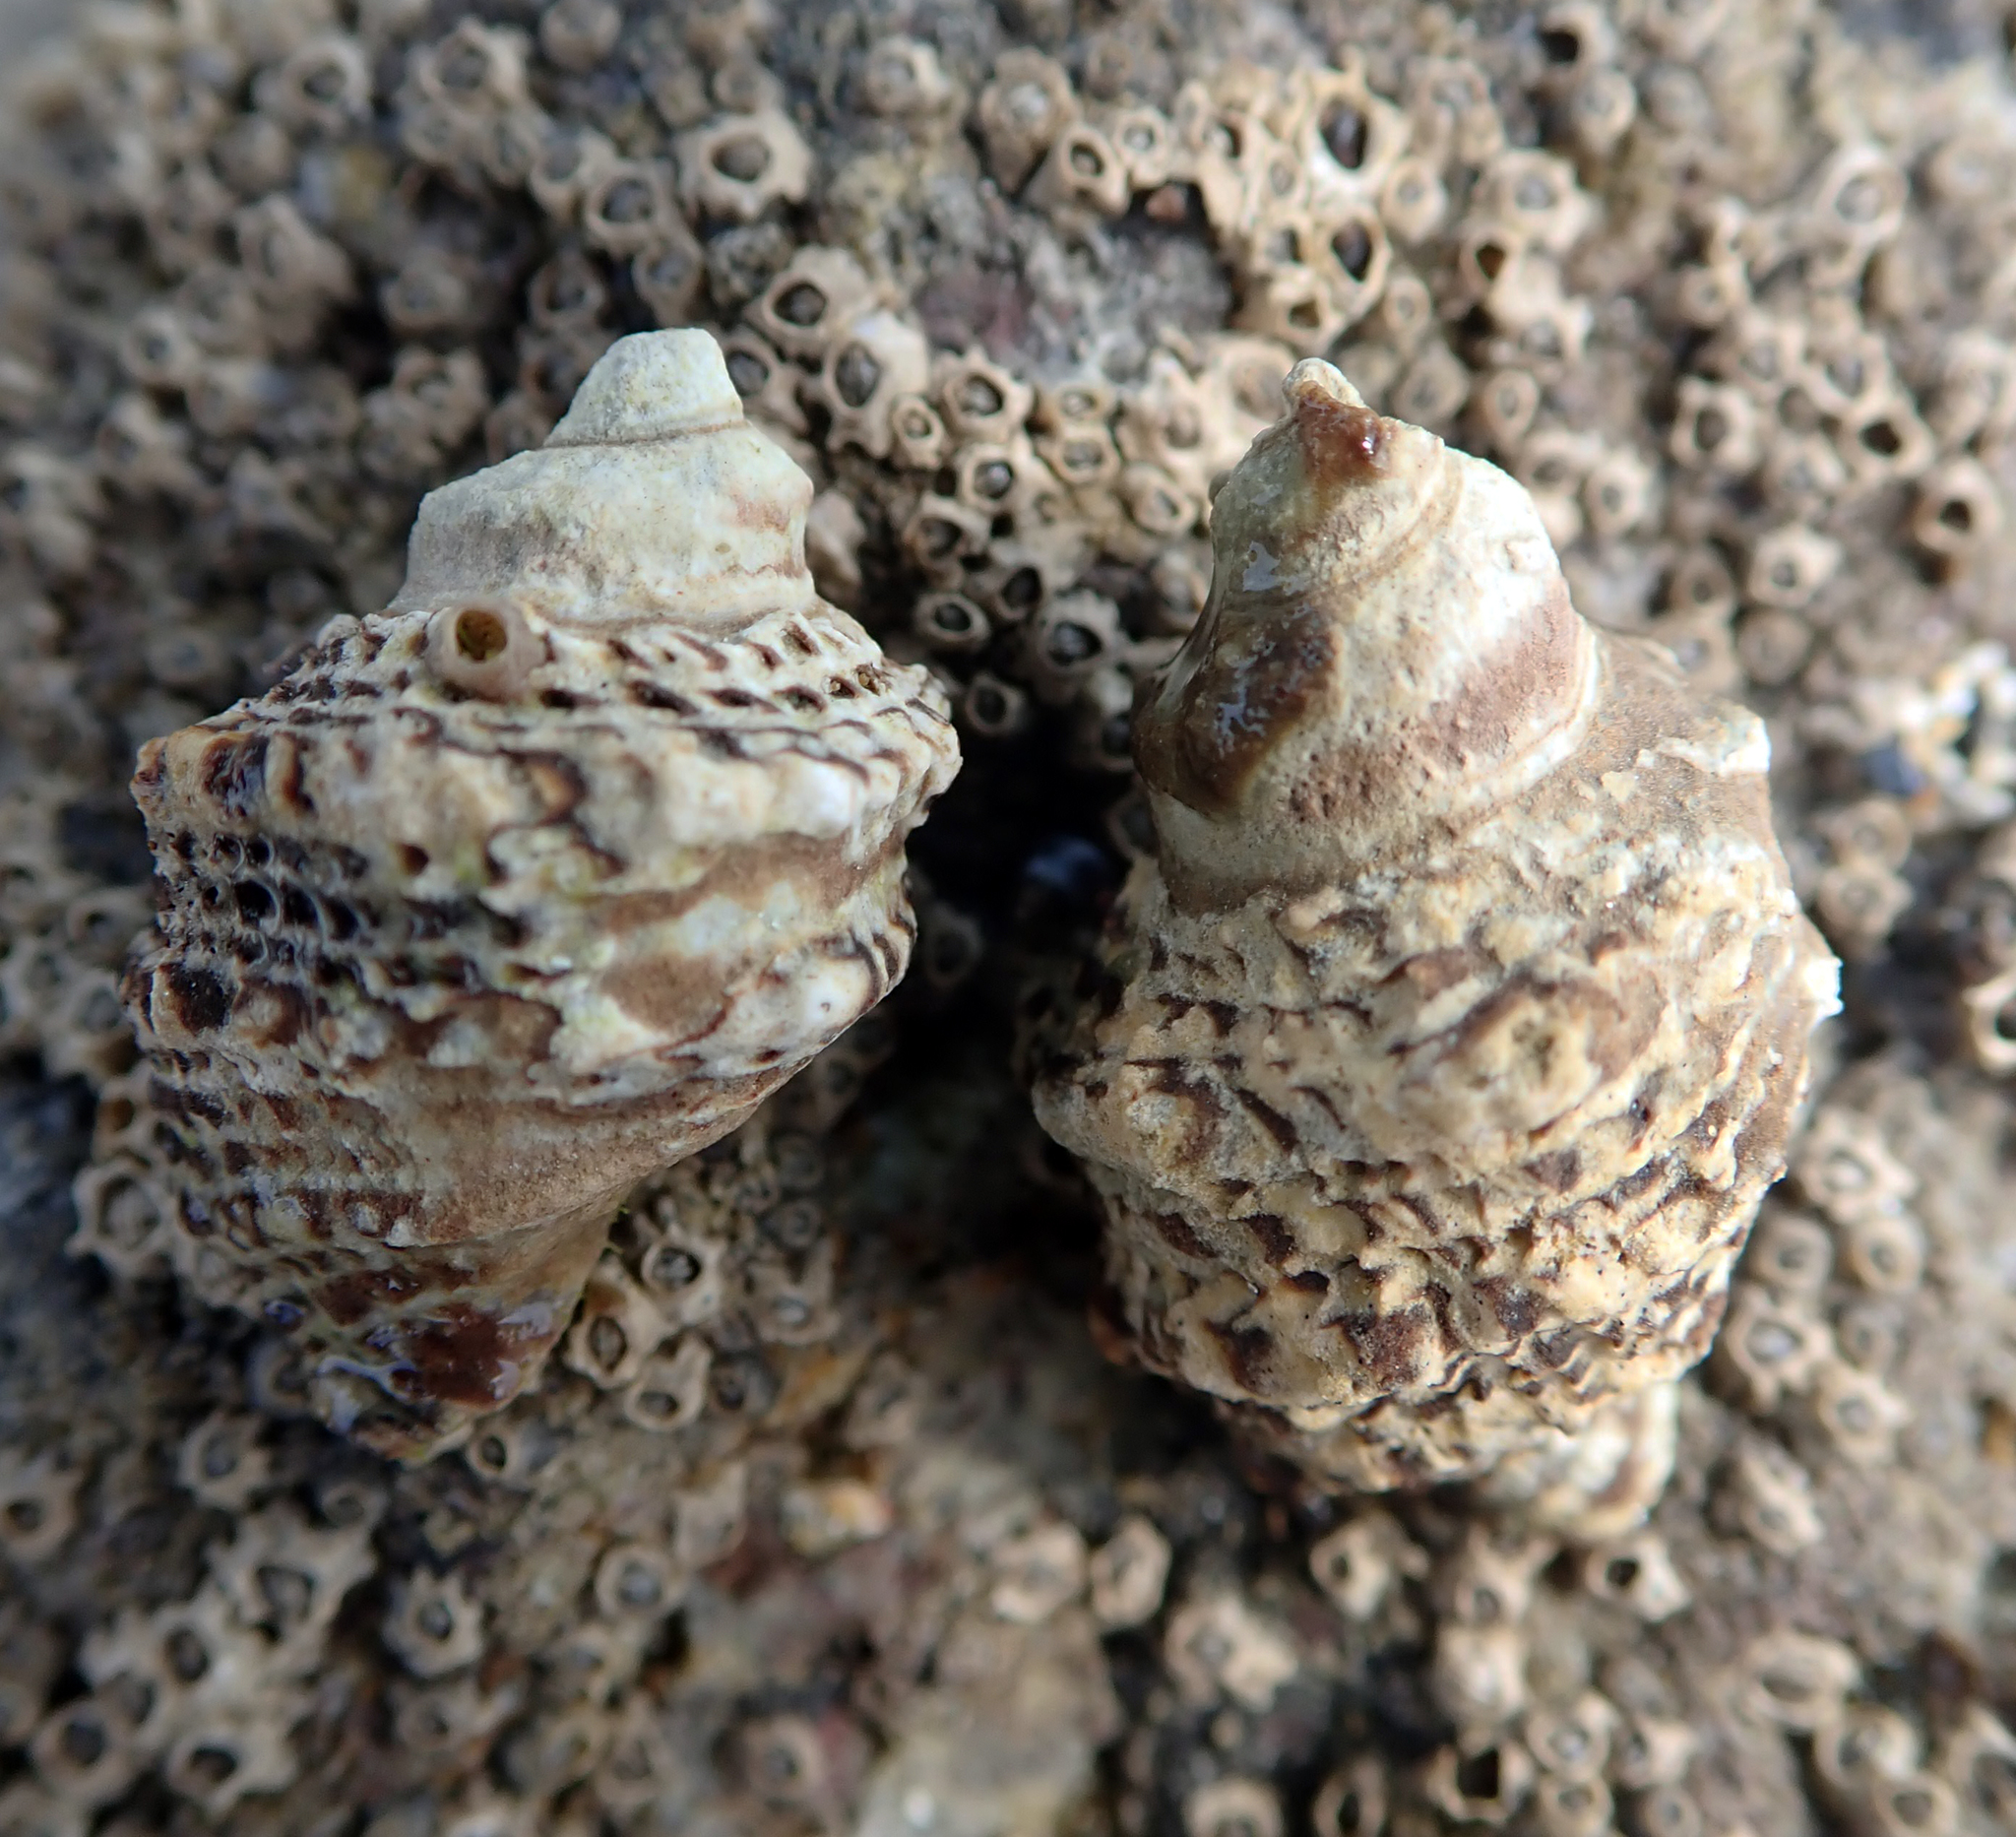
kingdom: Animalia
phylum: Mollusca
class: Gastropoda
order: Neogastropoda
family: Muricidae
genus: Haustrum
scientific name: Haustrum scobina
